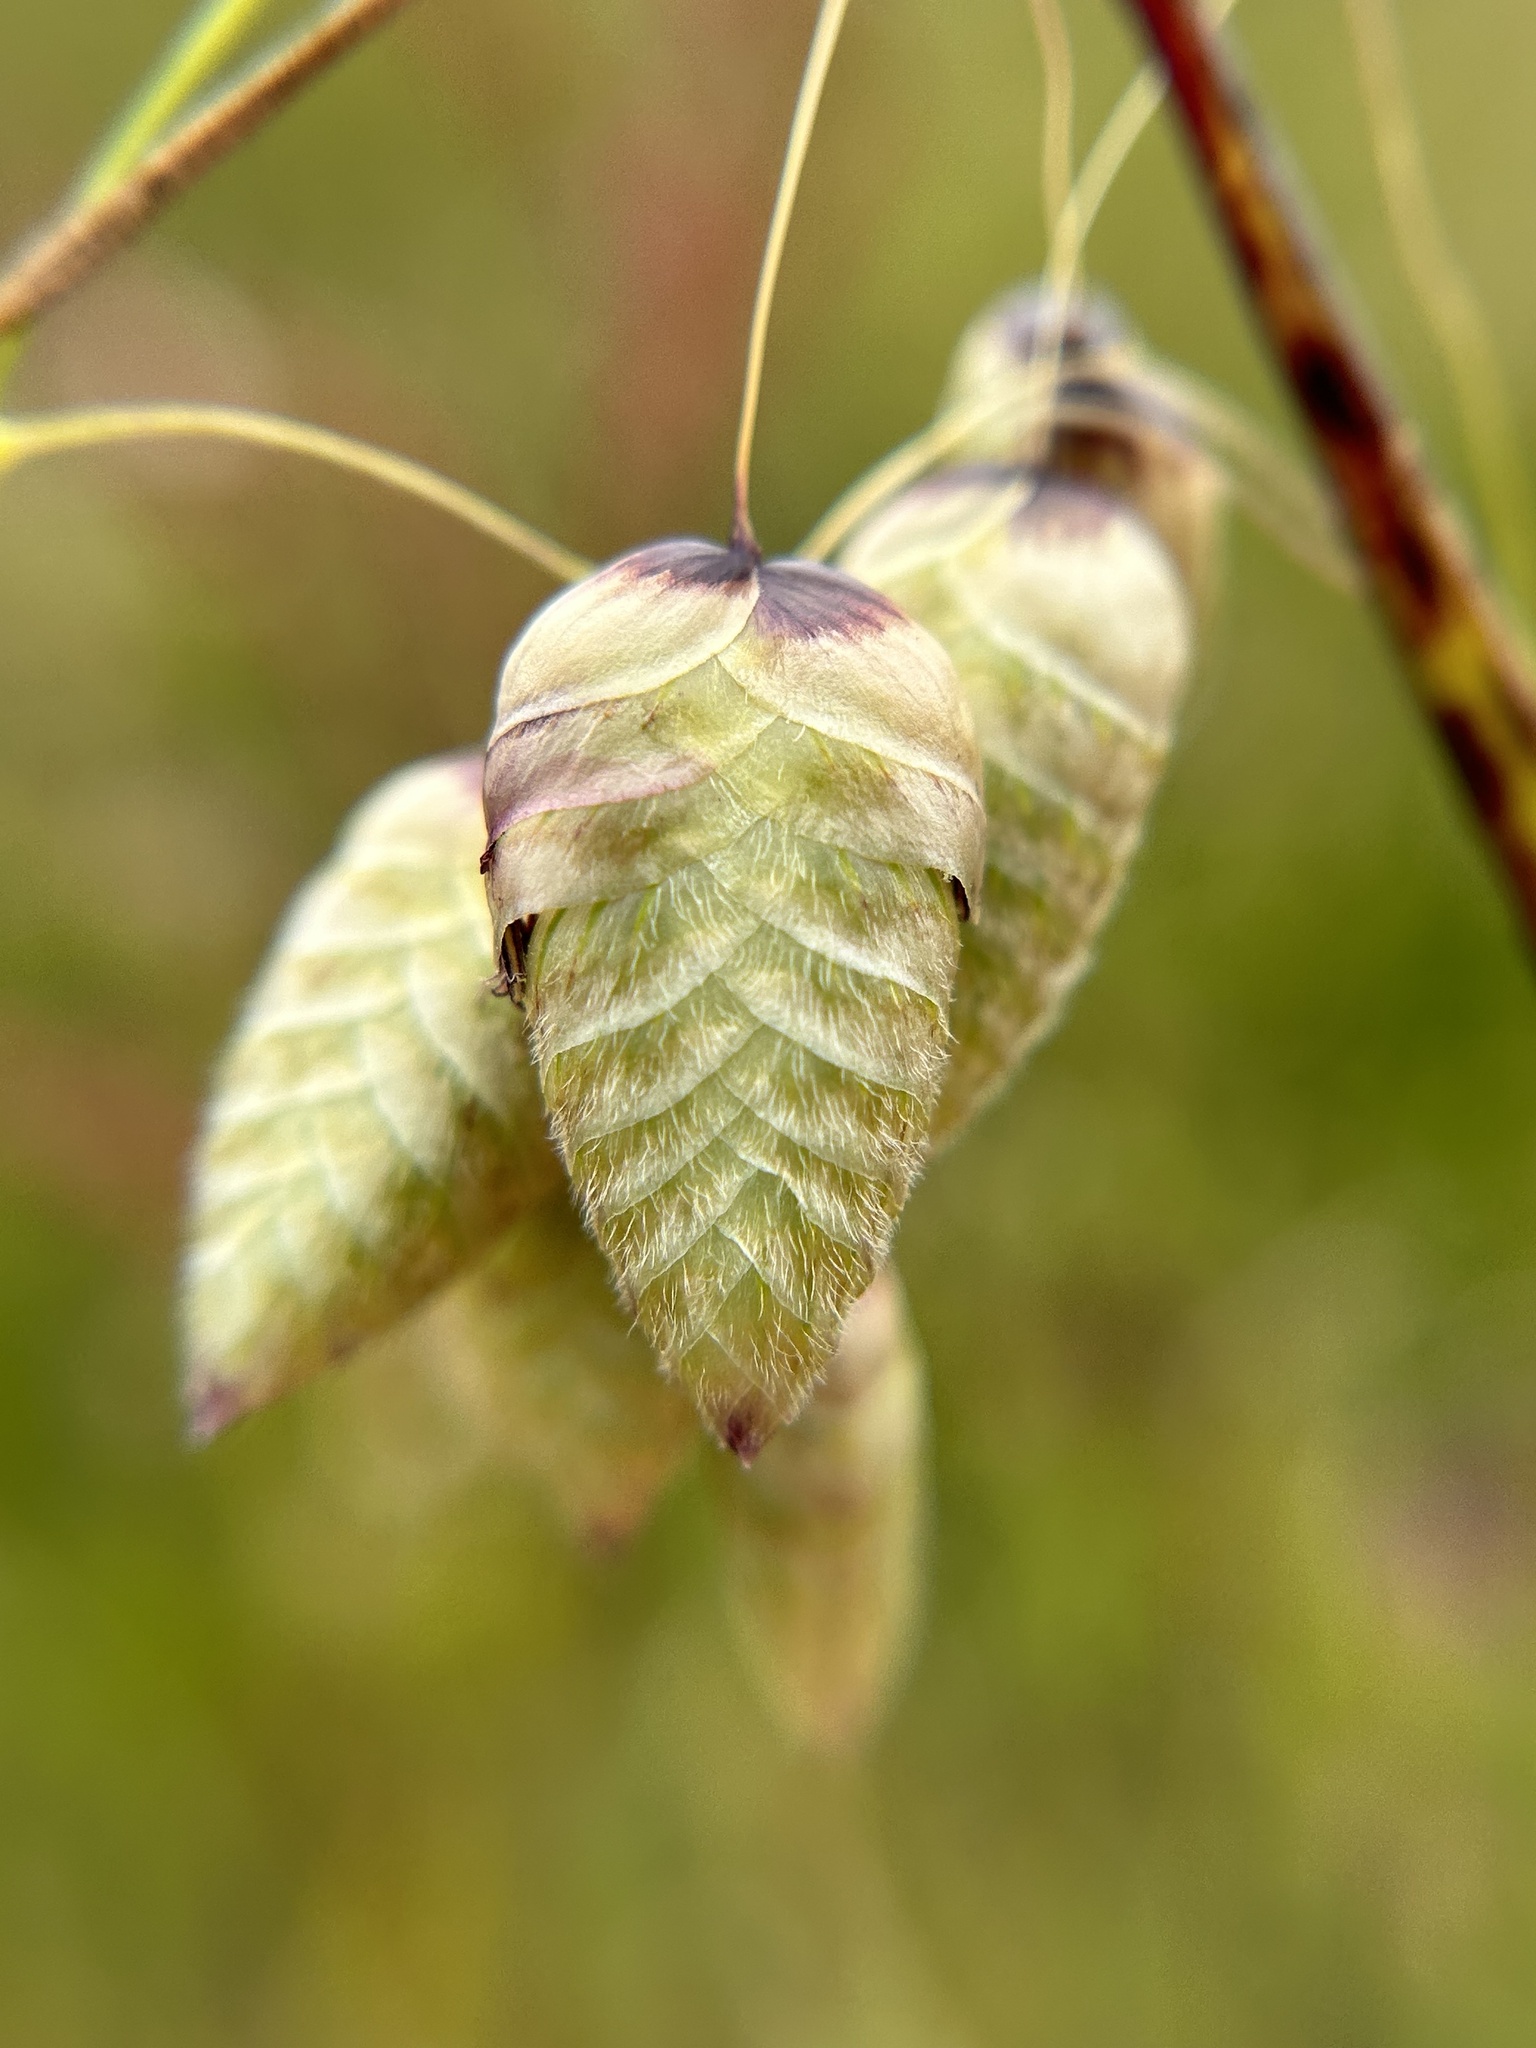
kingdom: Plantae
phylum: Tracheophyta
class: Liliopsida
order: Poales
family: Poaceae
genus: Briza
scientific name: Briza maxima
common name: Big quakinggrass
